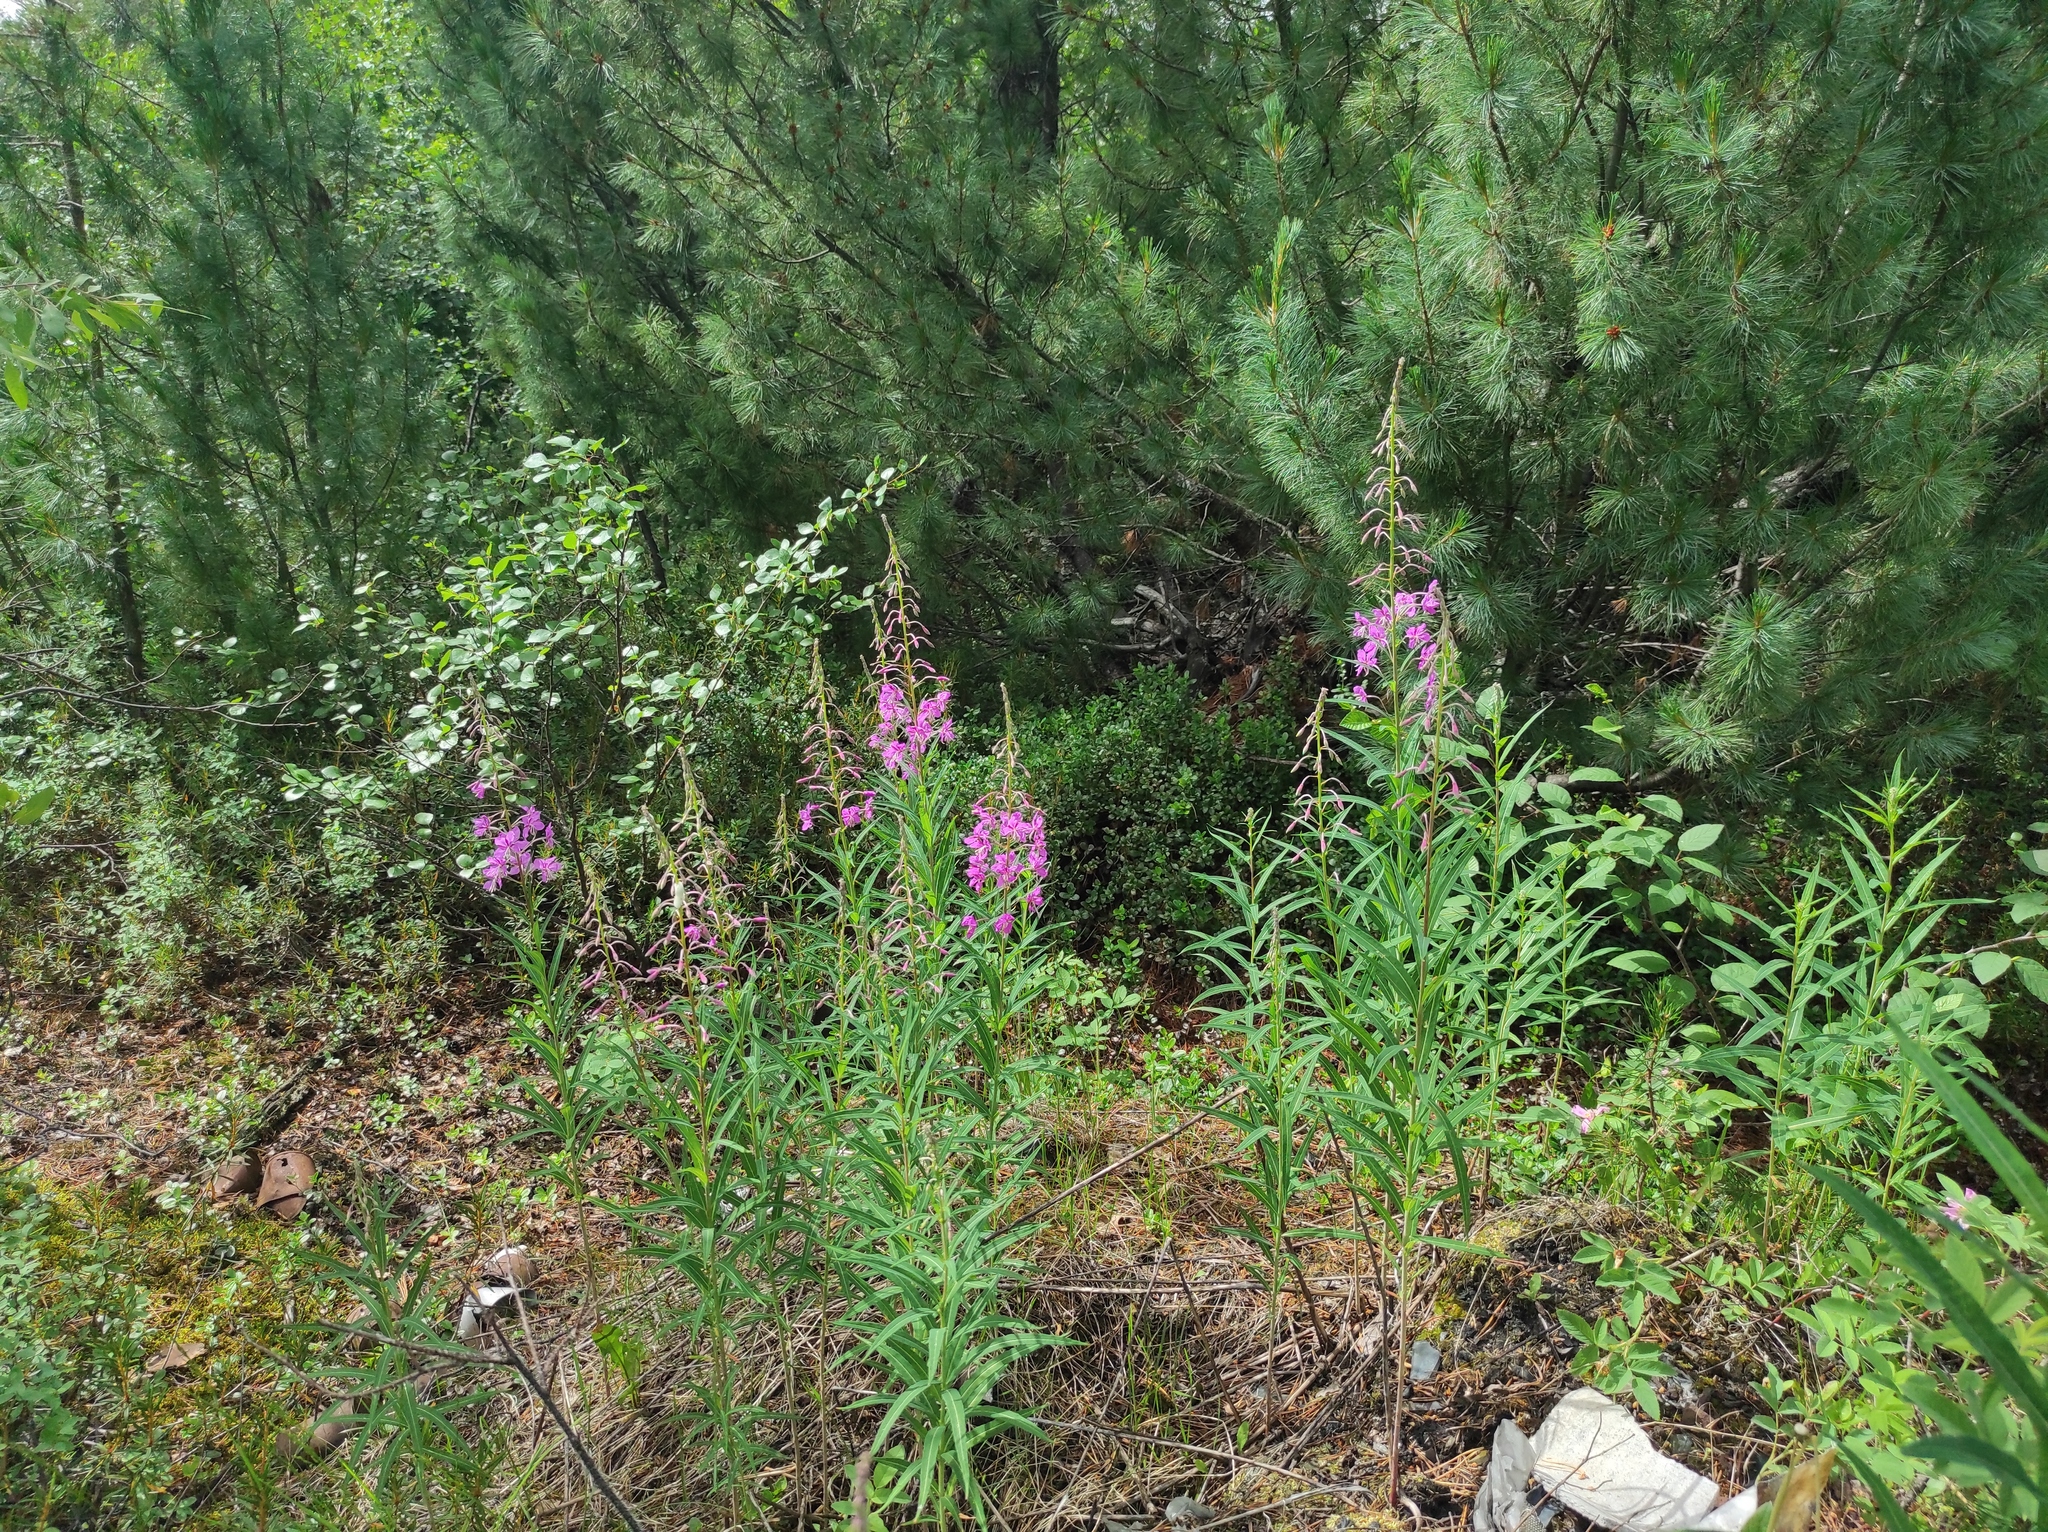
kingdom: Plantae
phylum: Tracheophyta
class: Pinopsida
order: Pinales
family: Pinaceae
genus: Pinus
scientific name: Pinus pumila
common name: Dwarf siberian pine
